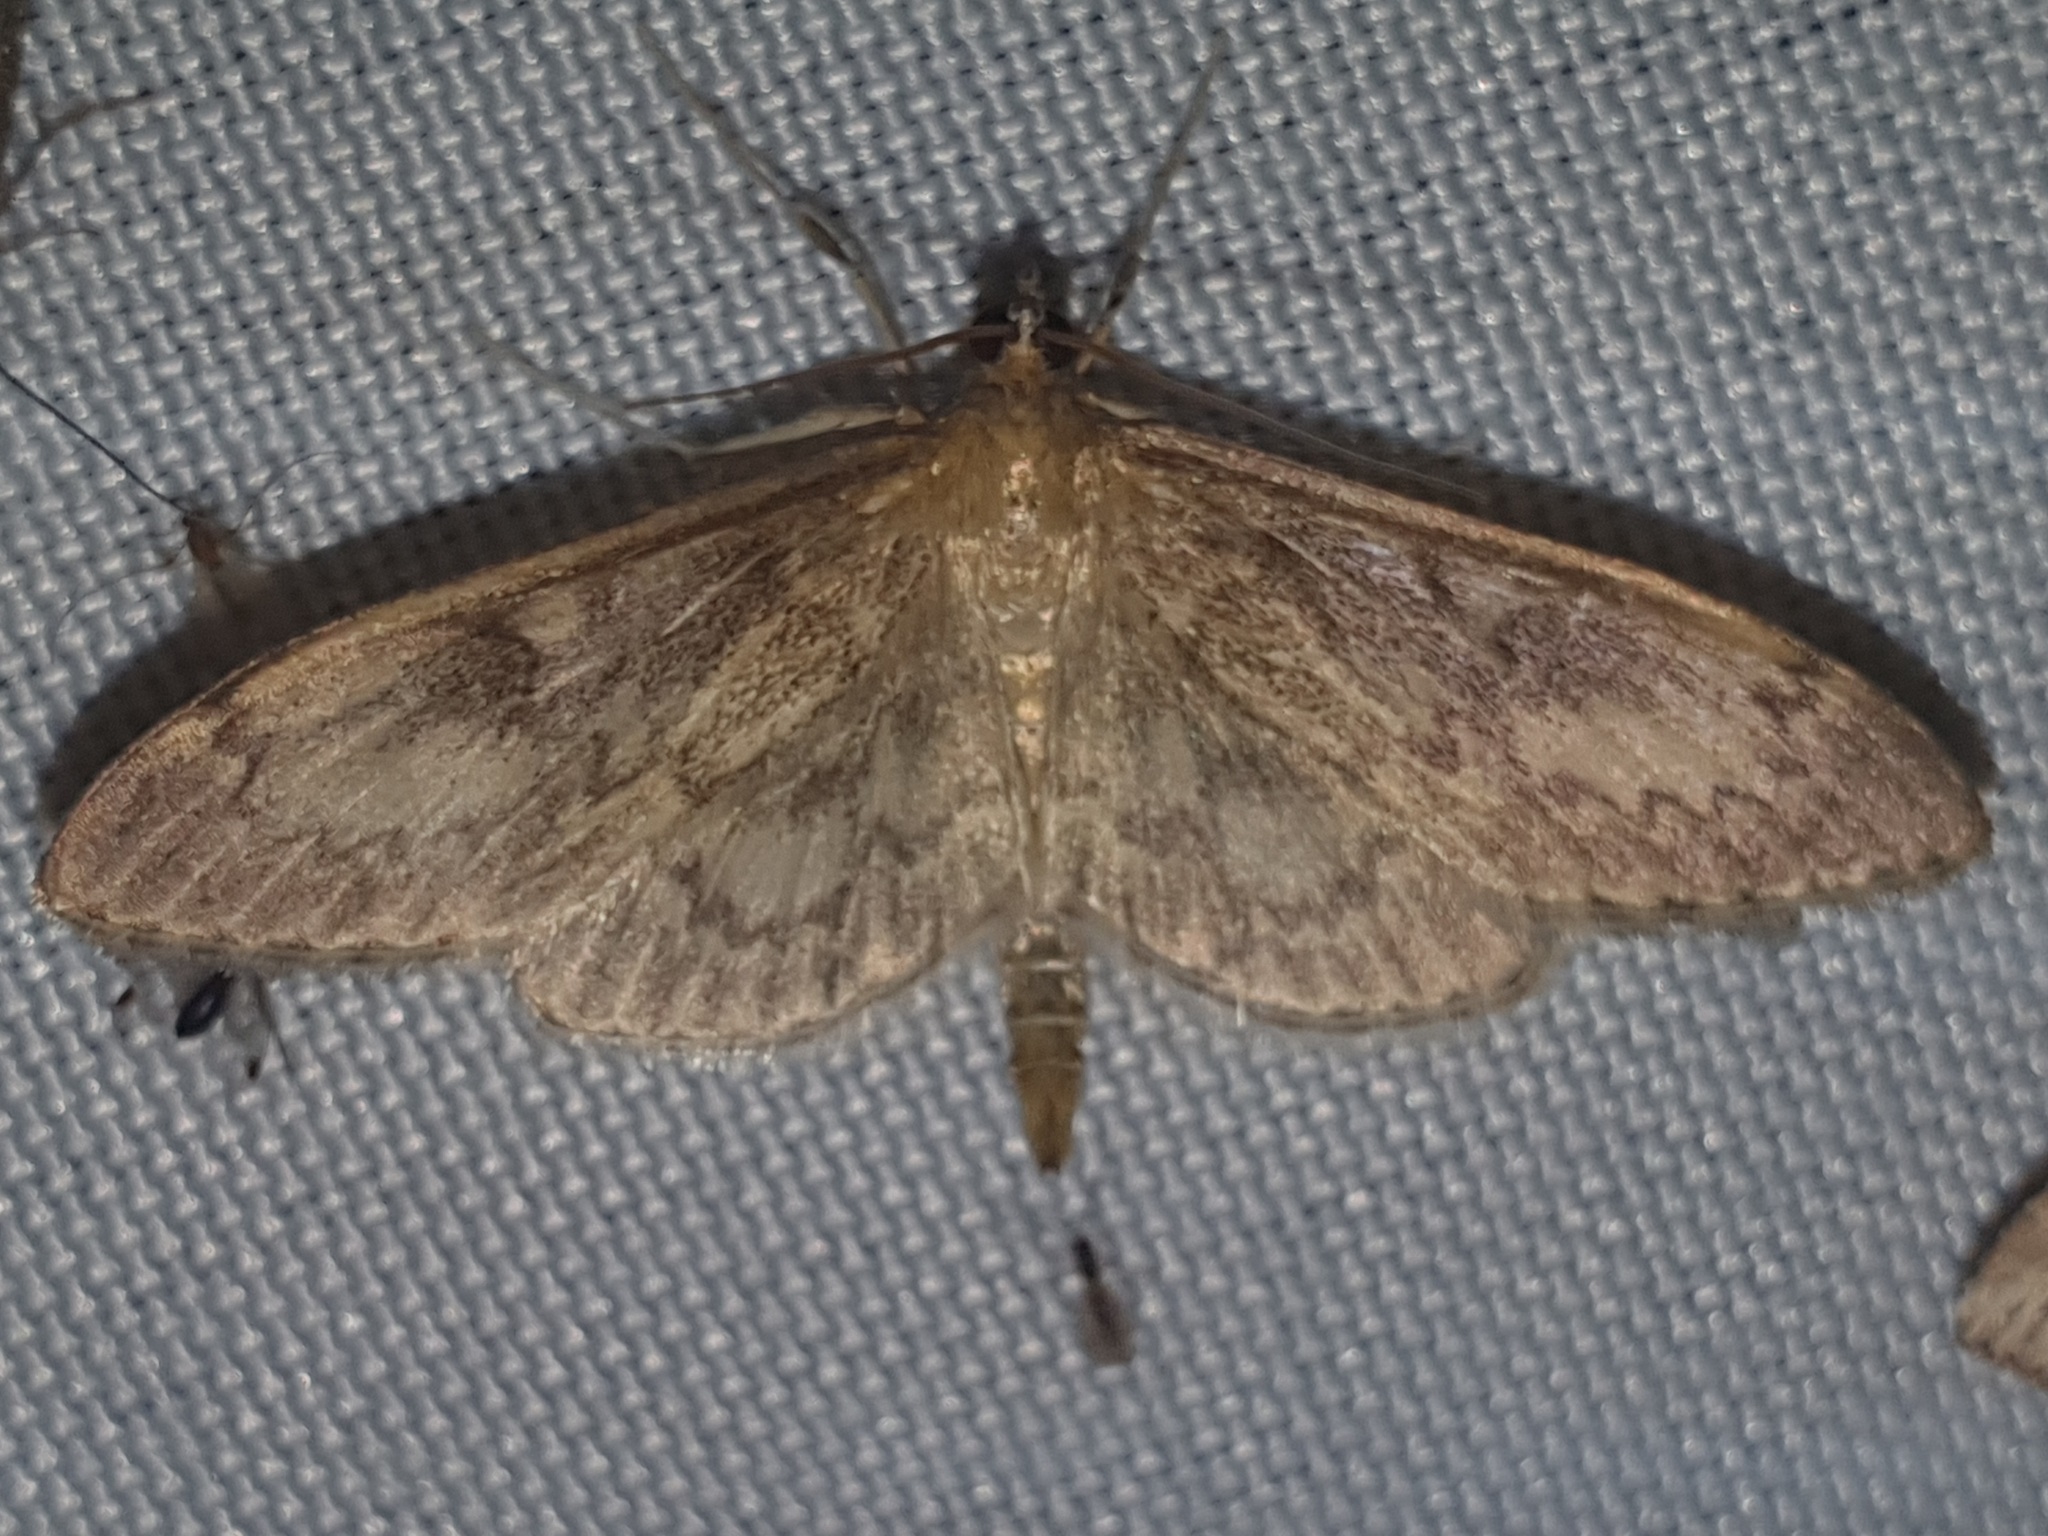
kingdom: Animalia
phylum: Arthropoda
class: Insecta
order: Lepidoptera
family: Crambidae
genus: Anania
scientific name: Anania lancealis
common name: Long-winged pearl
